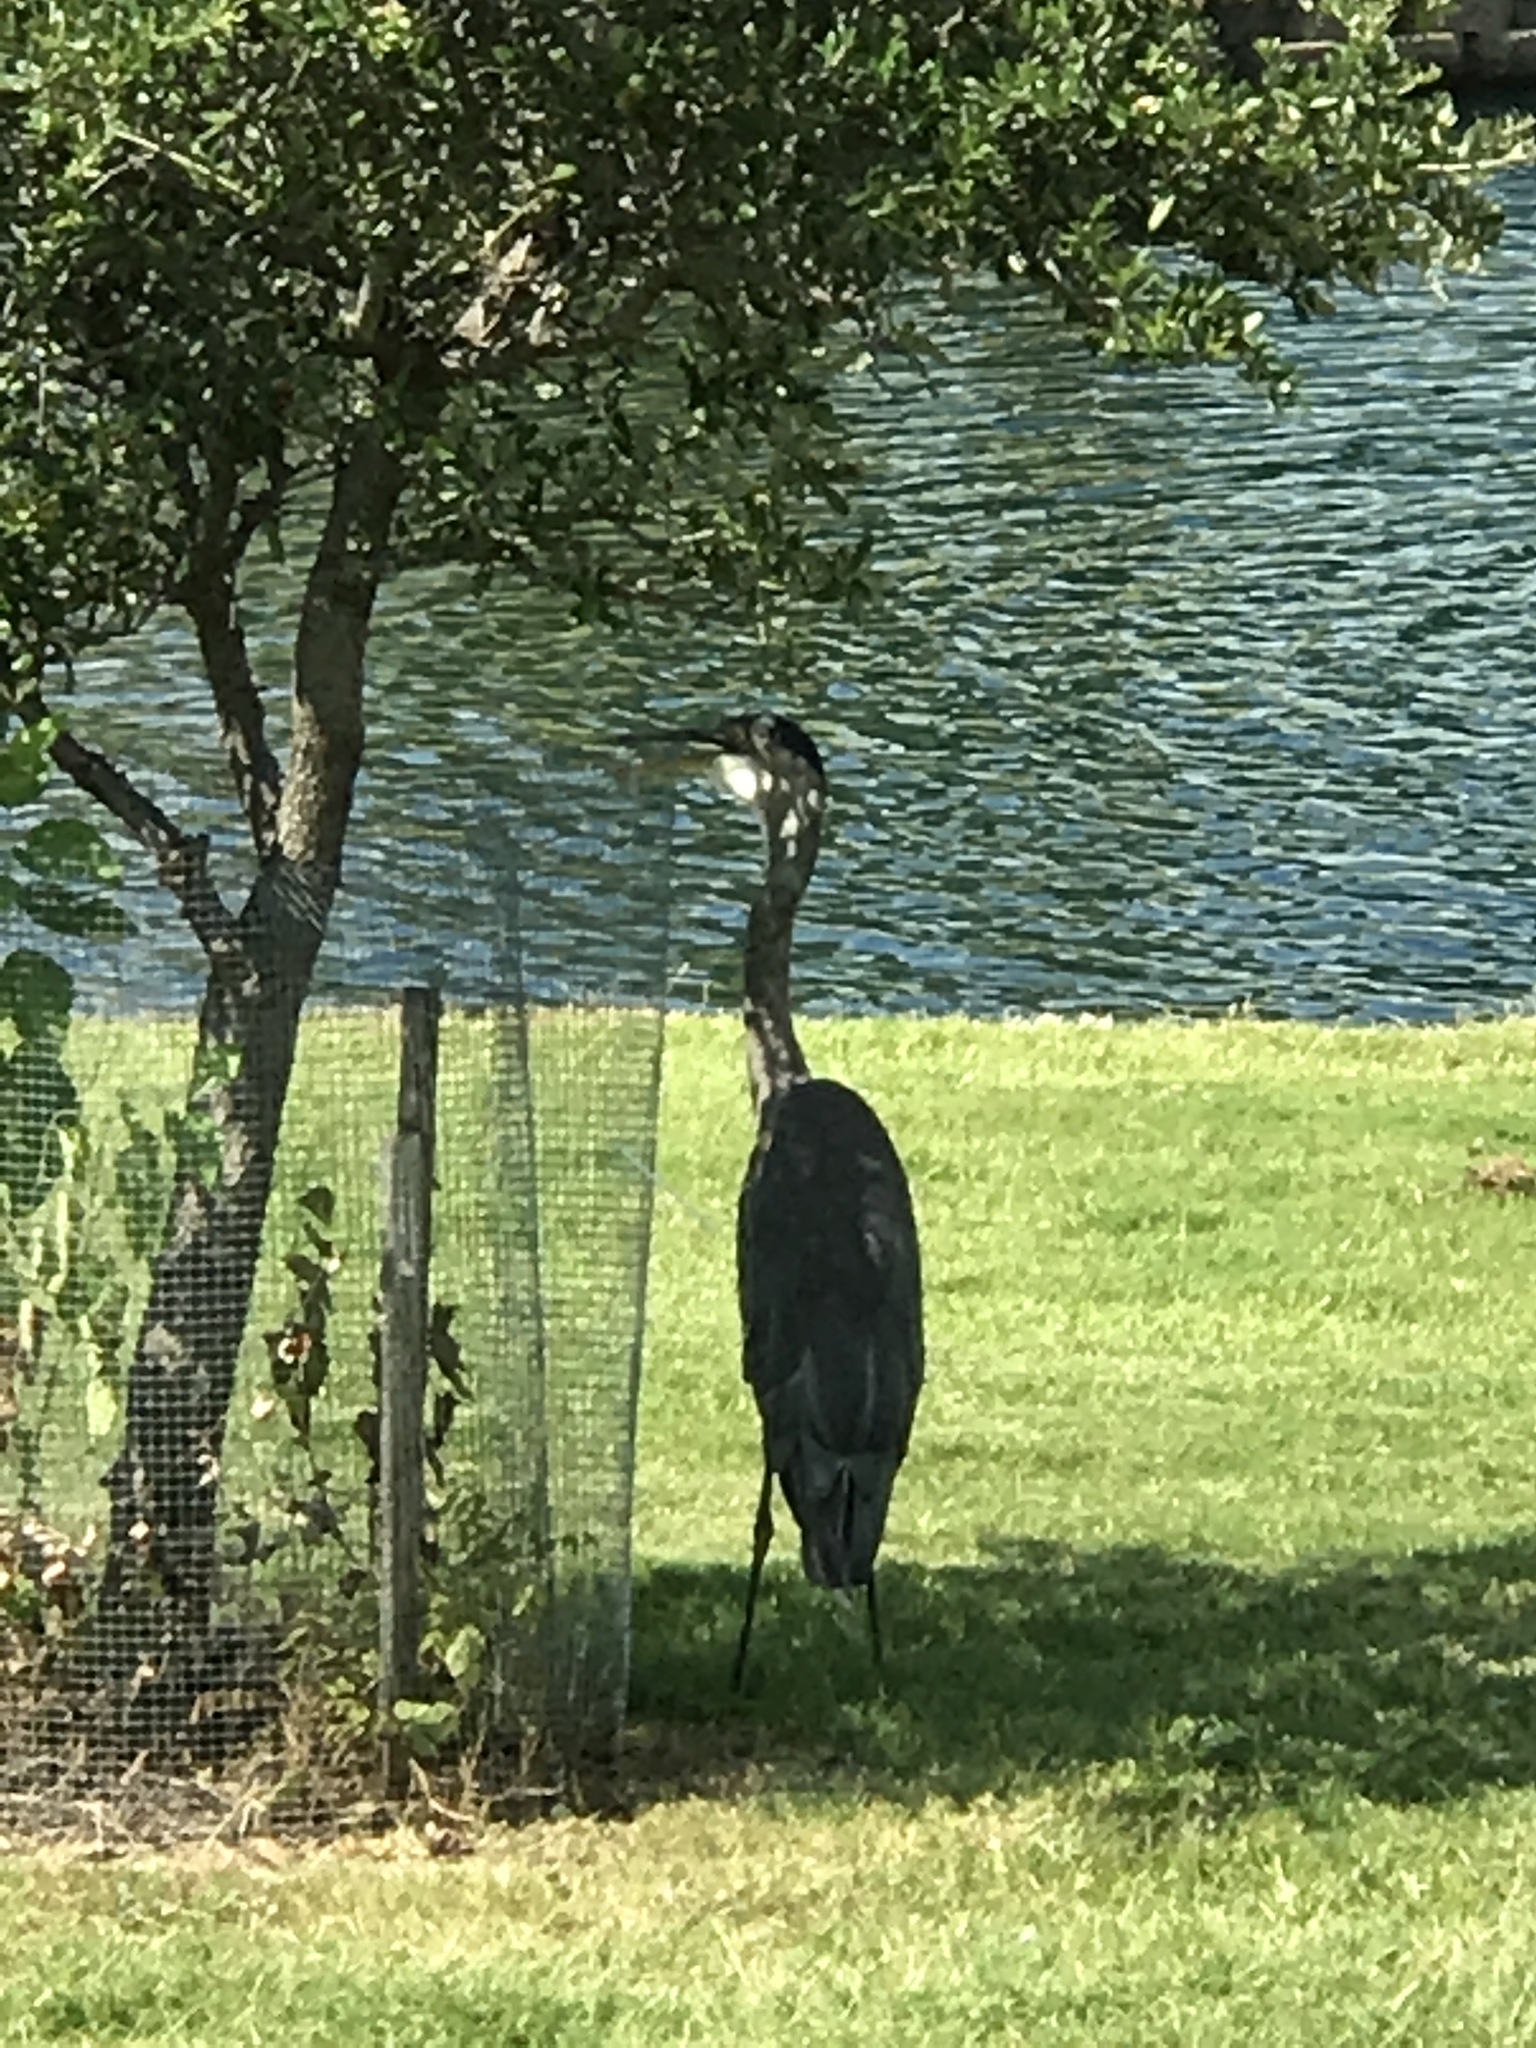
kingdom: Animalia
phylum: Chordata
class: Aves
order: Pelecaniformes
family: Ardeidae
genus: Ardea
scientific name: Ardea herodias
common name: Great blue heron
